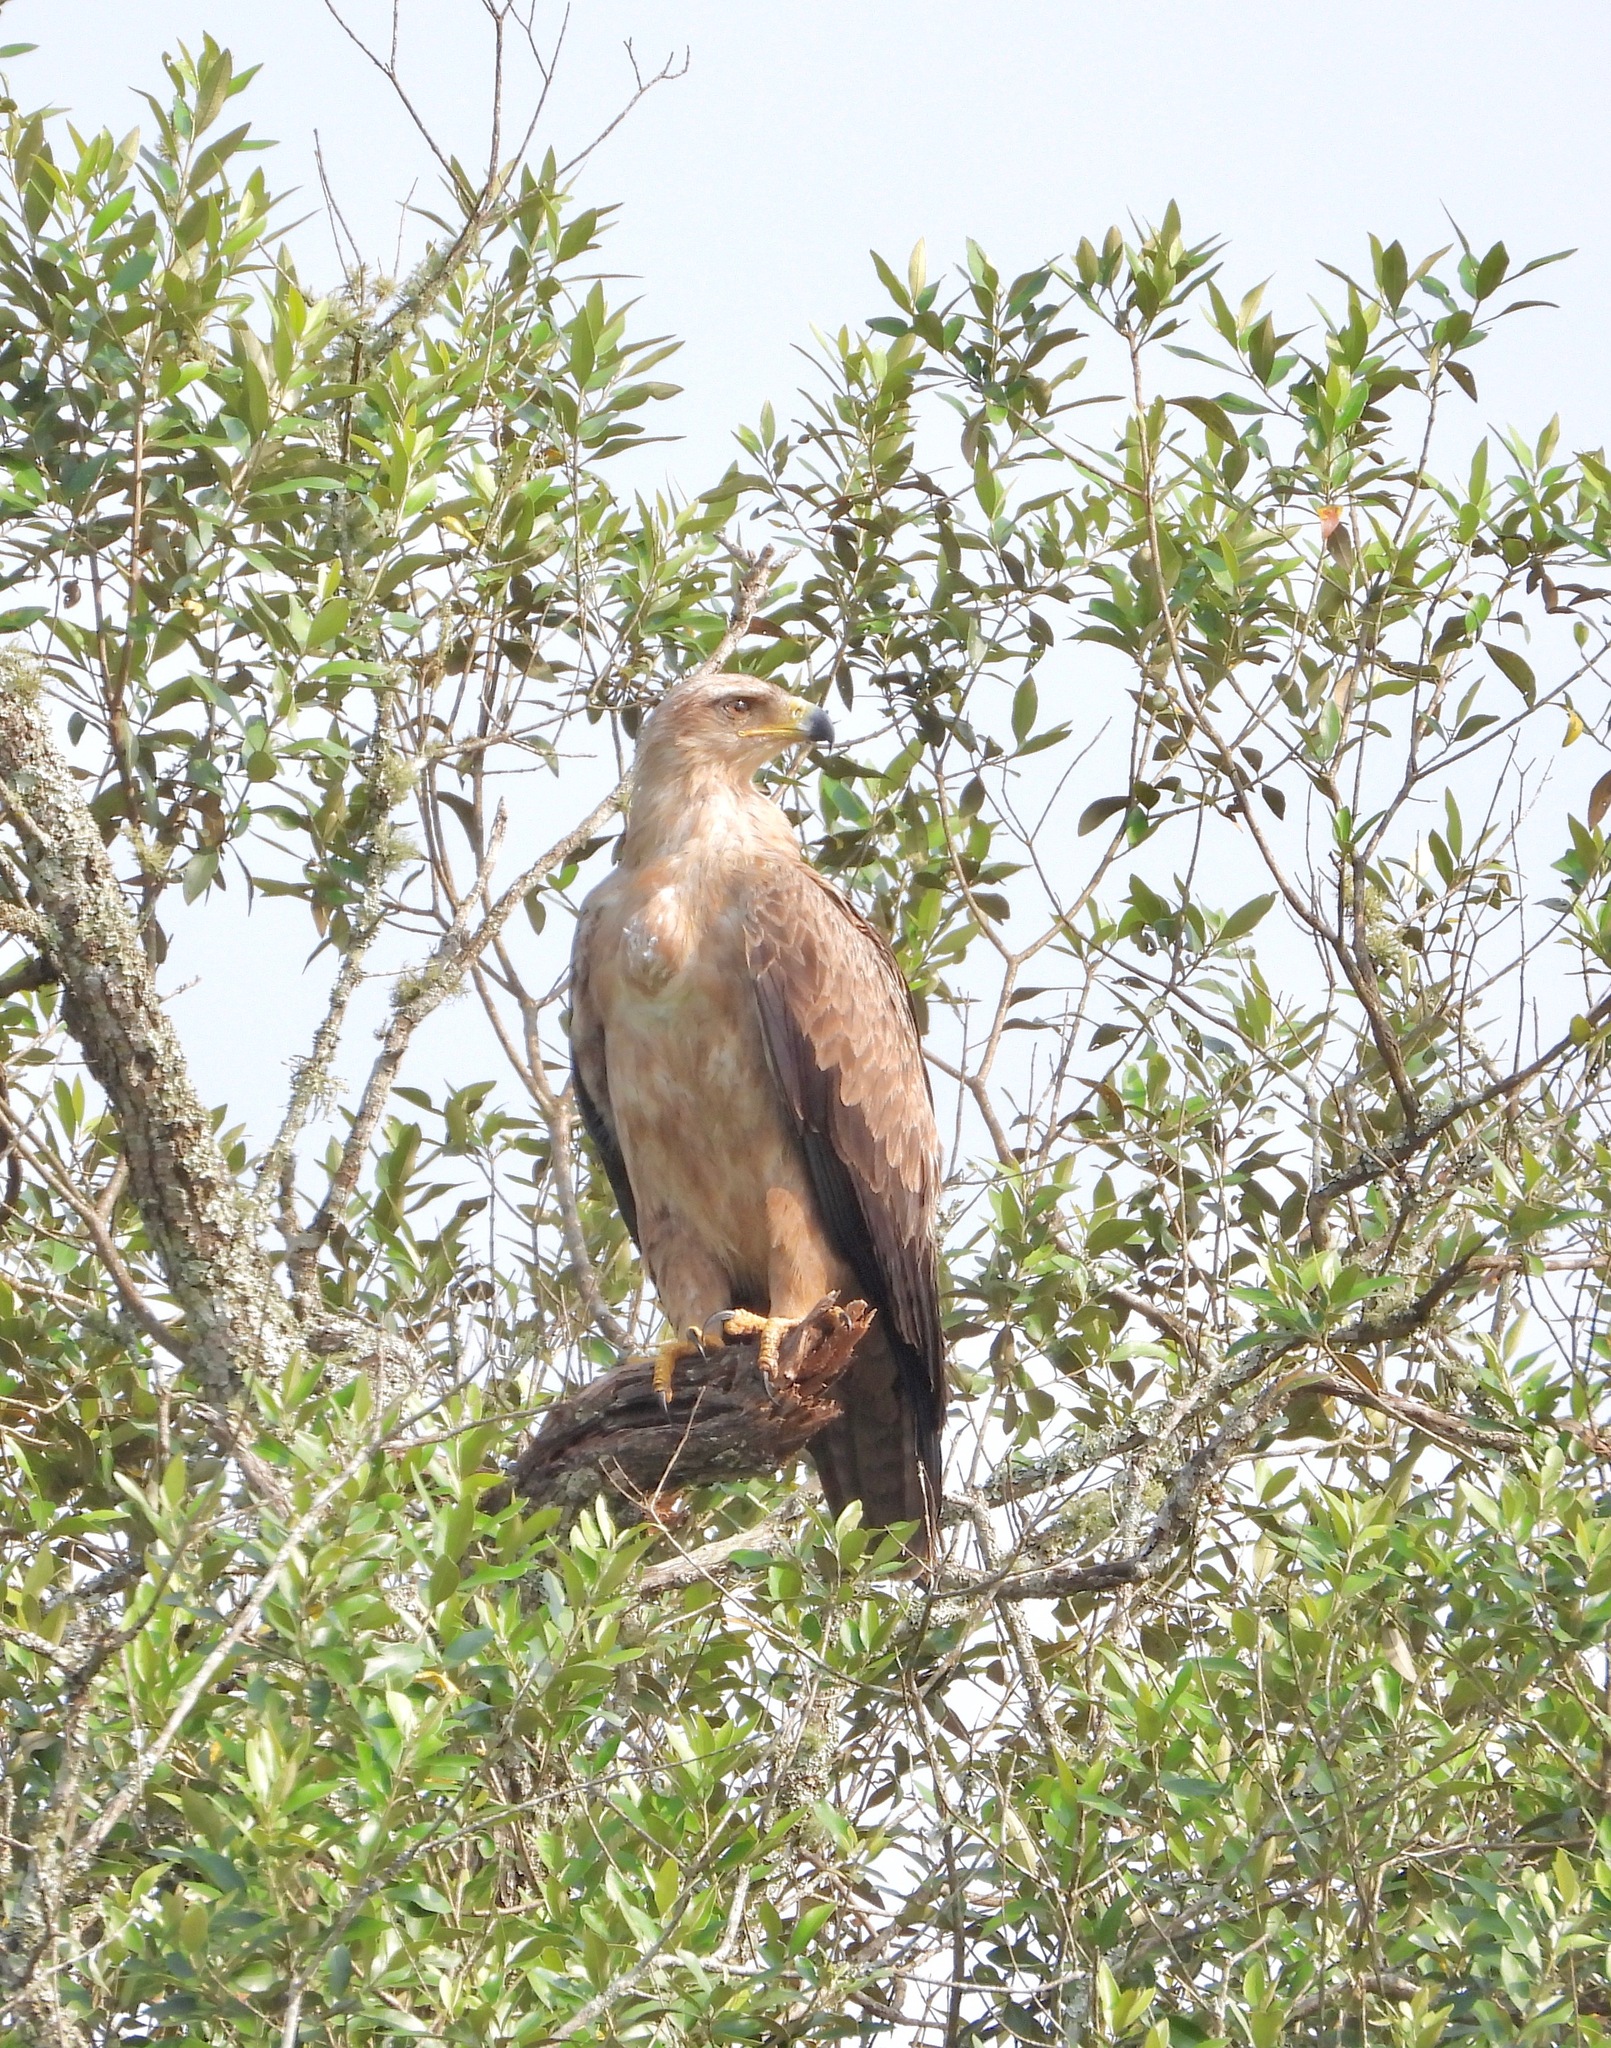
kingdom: Animalia
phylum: Chordata
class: Aves
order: Accipitriformes
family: Accipitridae
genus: Aquila
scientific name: Aquila rapax
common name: Tawny eagle
